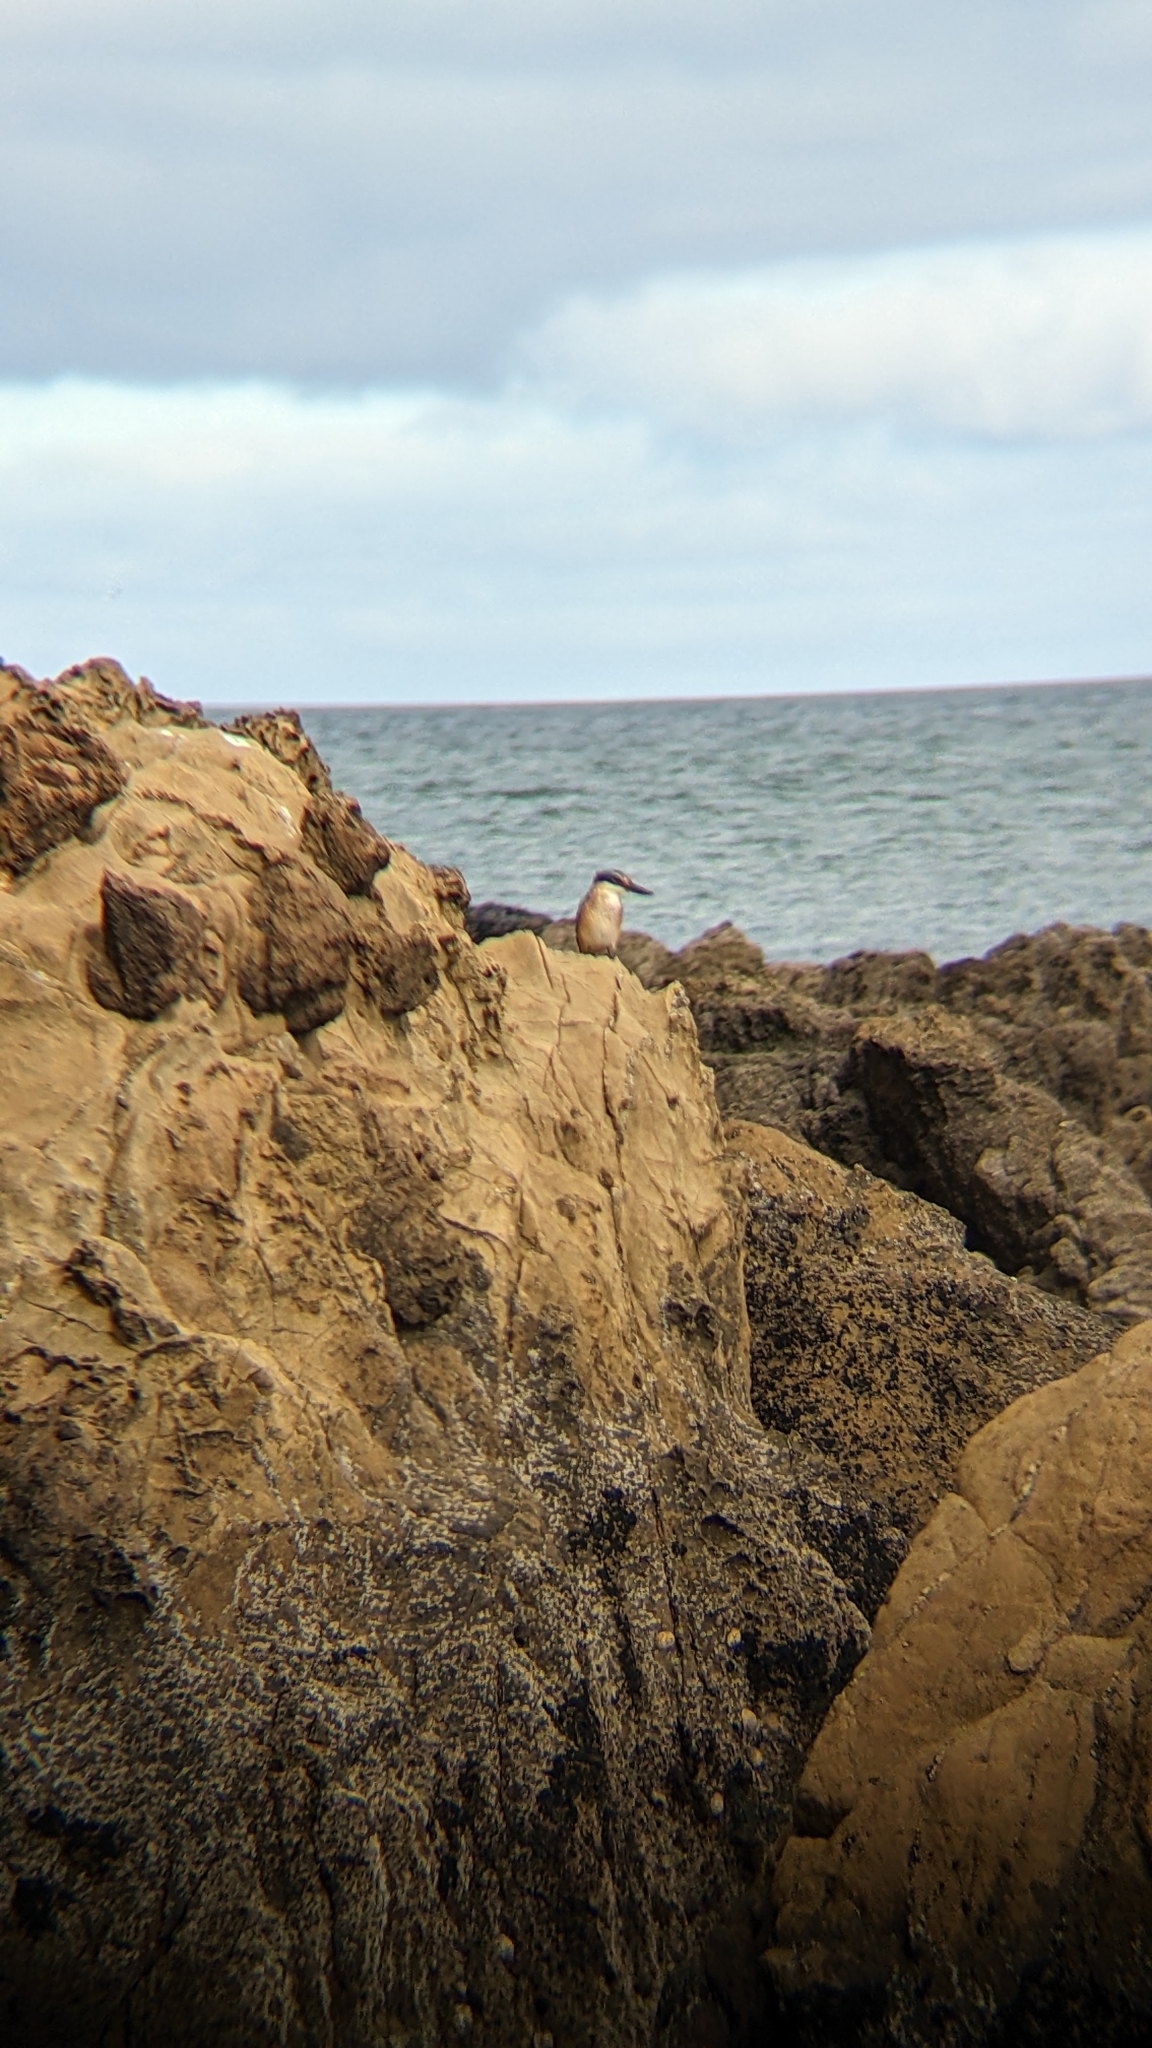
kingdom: Animalia
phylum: Chordata
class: Aves
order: Coraciiformes
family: Alcedinidae
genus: Todiramphus
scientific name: Todiramphus sanctus
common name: Sacred kingfisher
